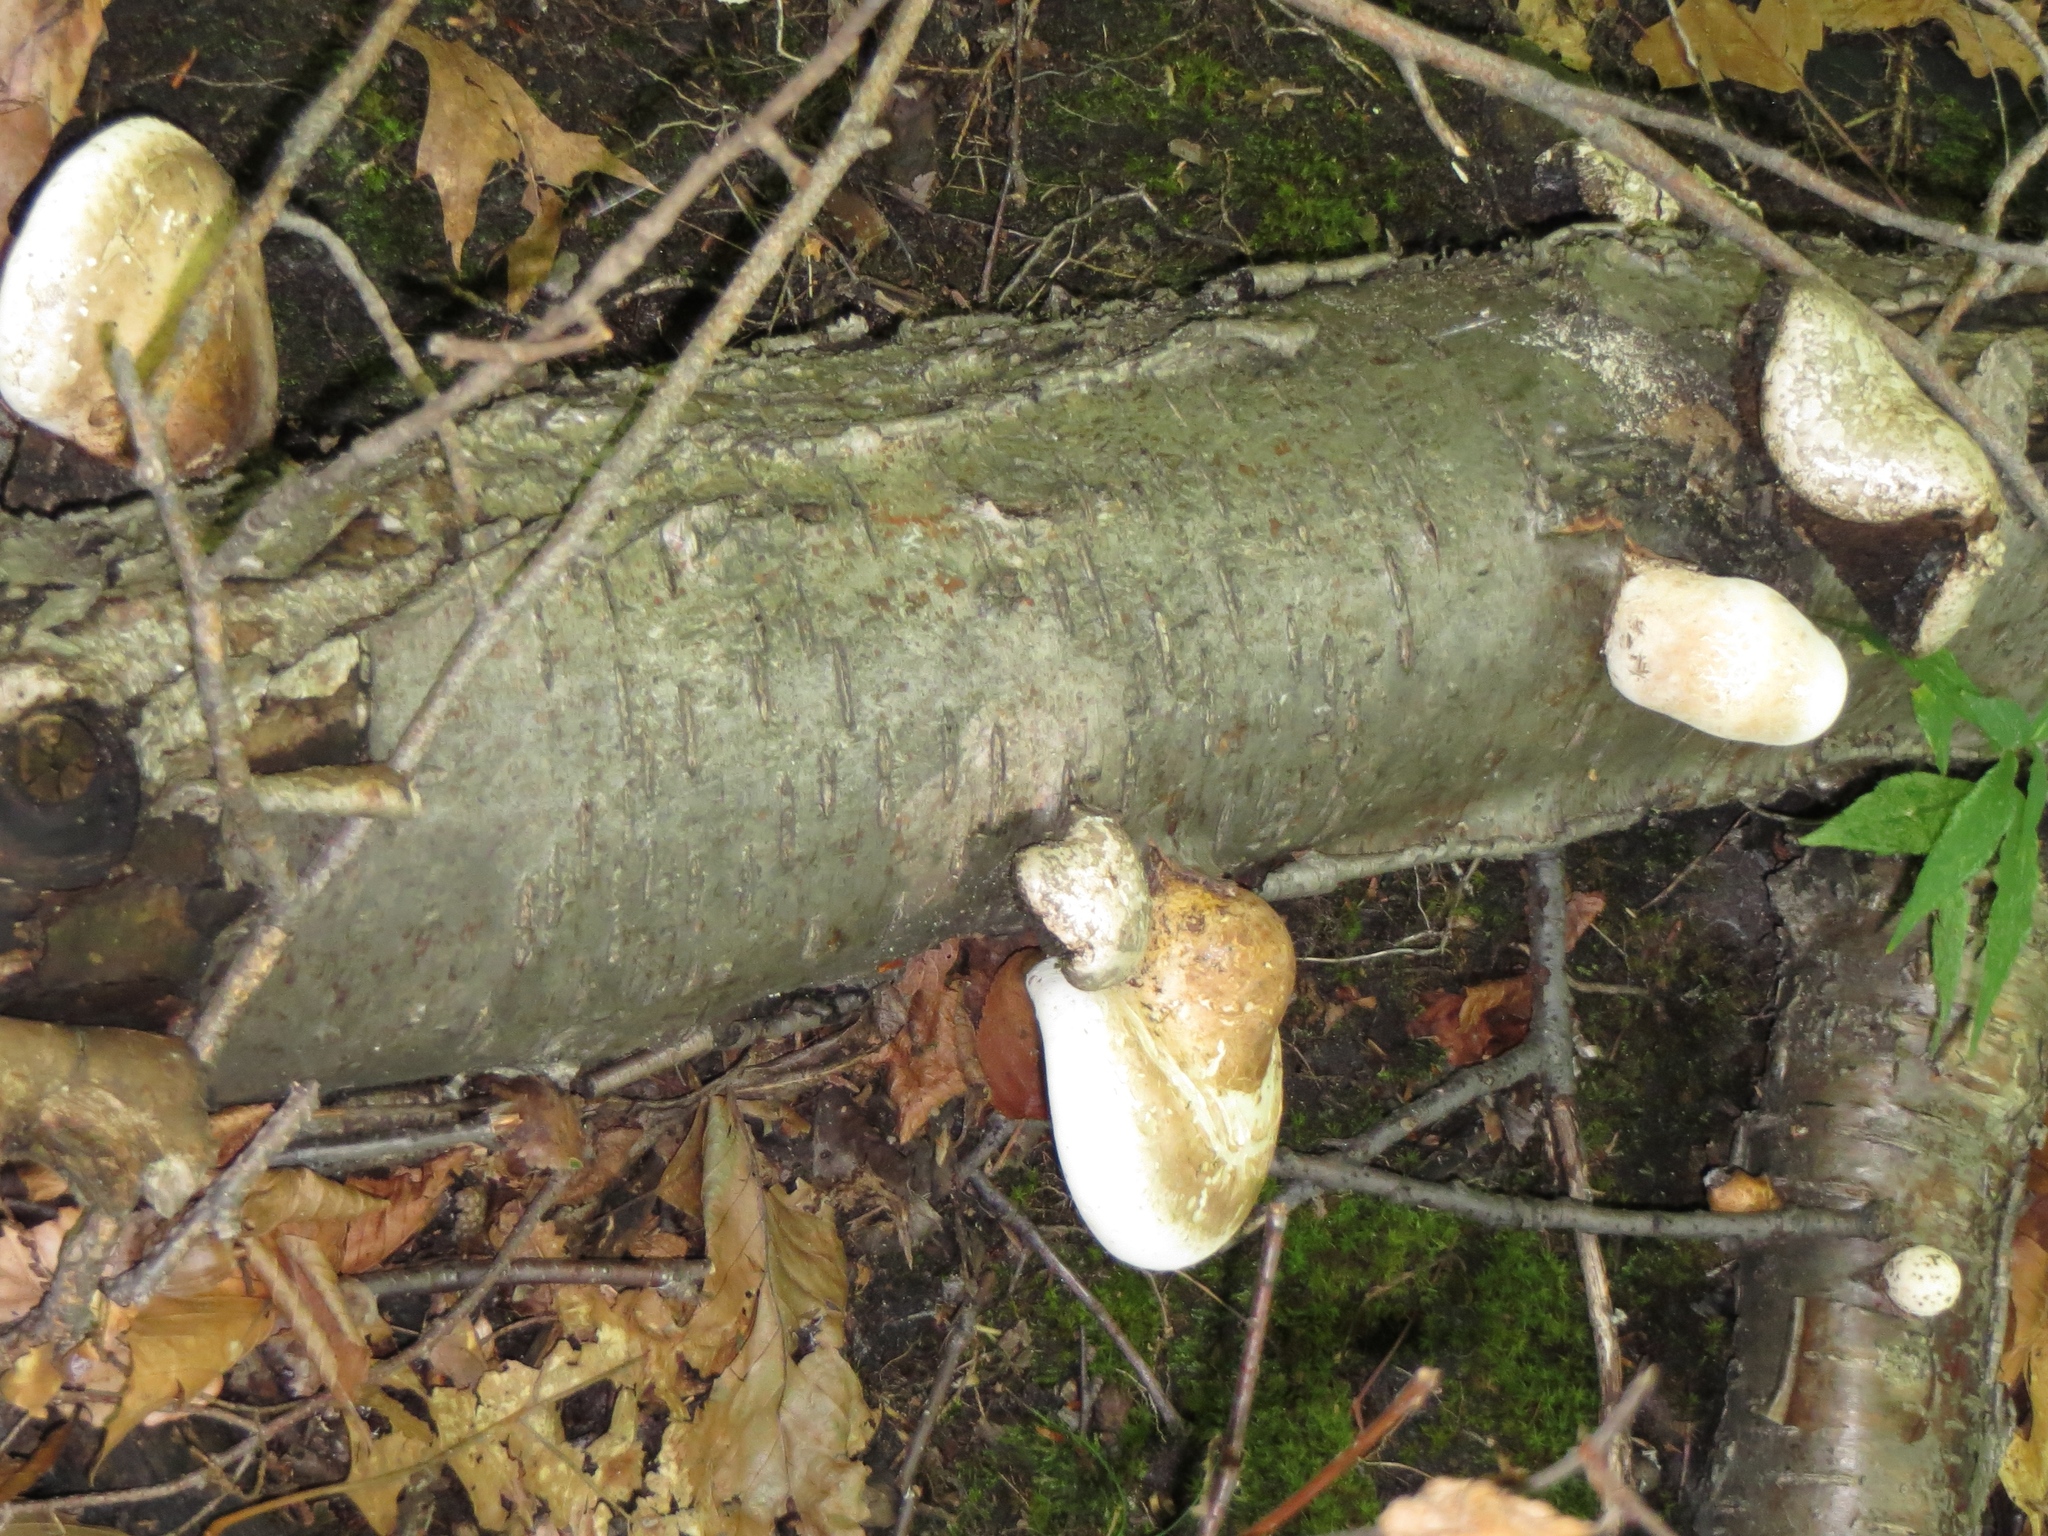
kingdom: Fungi
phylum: Basidiomycota
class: Agaricomycetes
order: Polyporales
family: Fomitopsidaceae
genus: Fomitopsis
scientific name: Fomitopsis betulina
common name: Birch polypore
